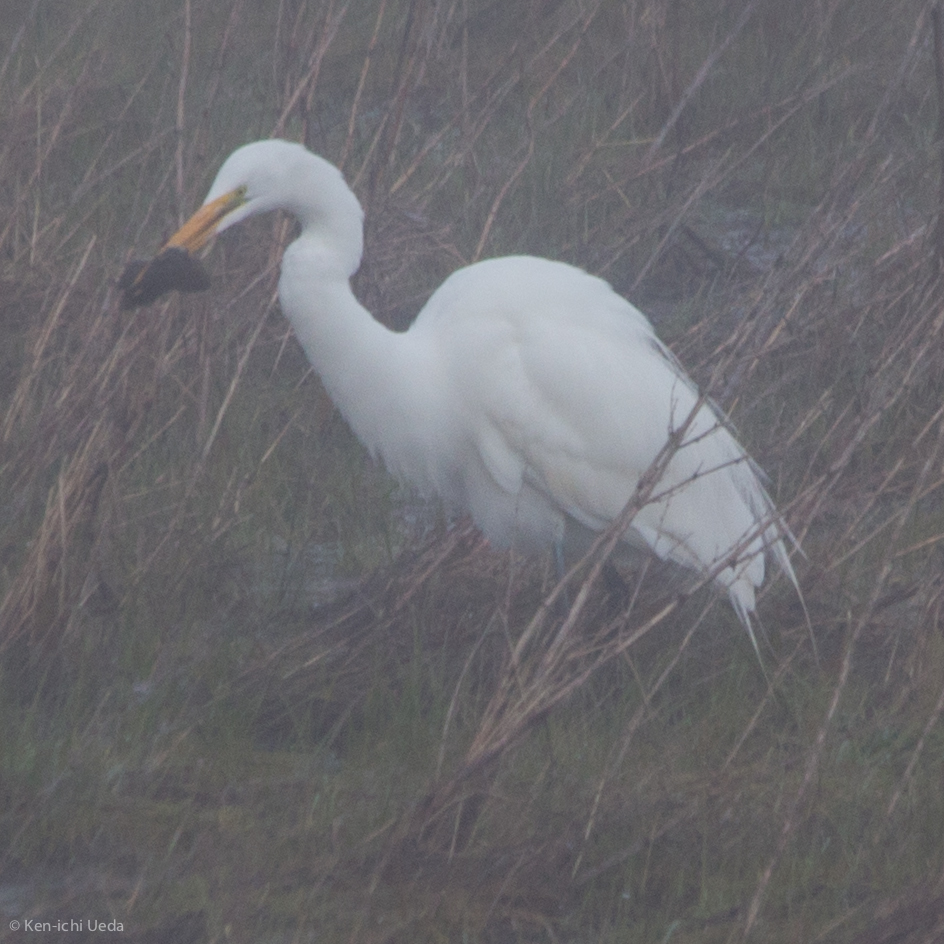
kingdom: Animalia
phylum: Chordata
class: Aves
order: Pelecaniformes
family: Ardeidae
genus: Ardea
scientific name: Ardea alba
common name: Great egret
